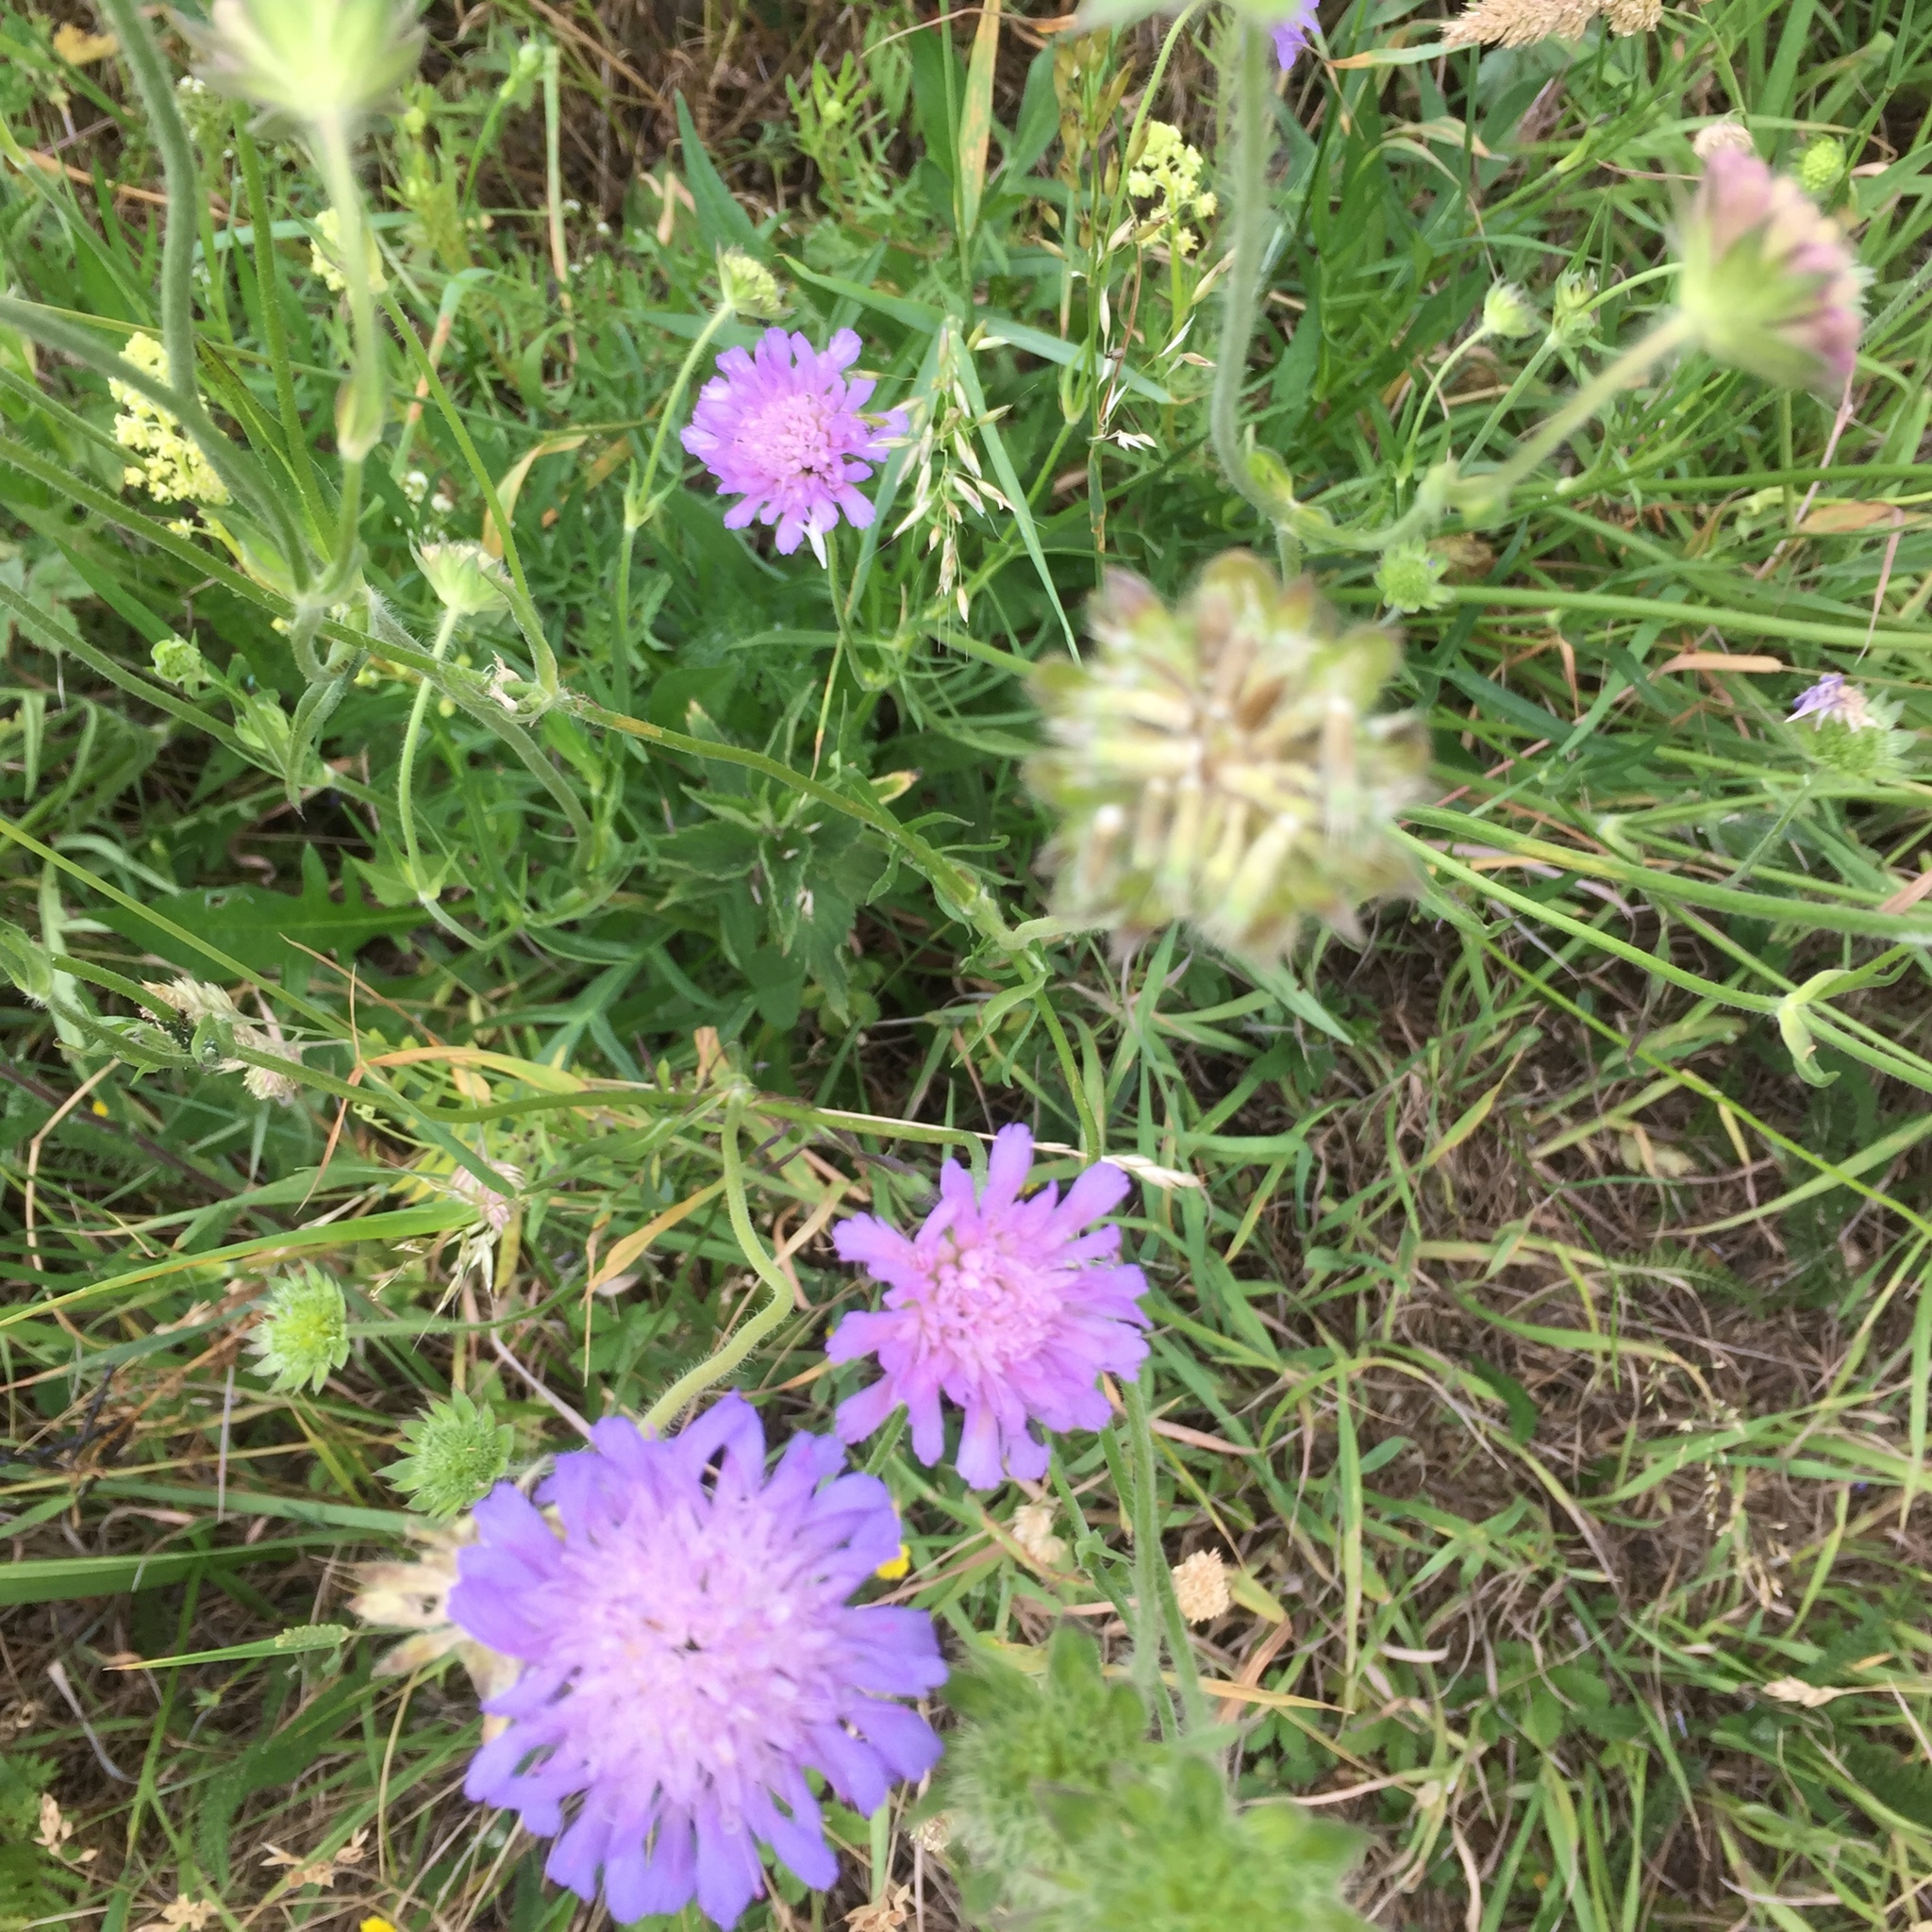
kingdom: Plantae
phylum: Tracheophyta
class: Magnoliopsida
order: Dipsacales
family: Caprifoliaceae
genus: Knautia
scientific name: Knautia arvensis
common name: Field scabiosa
